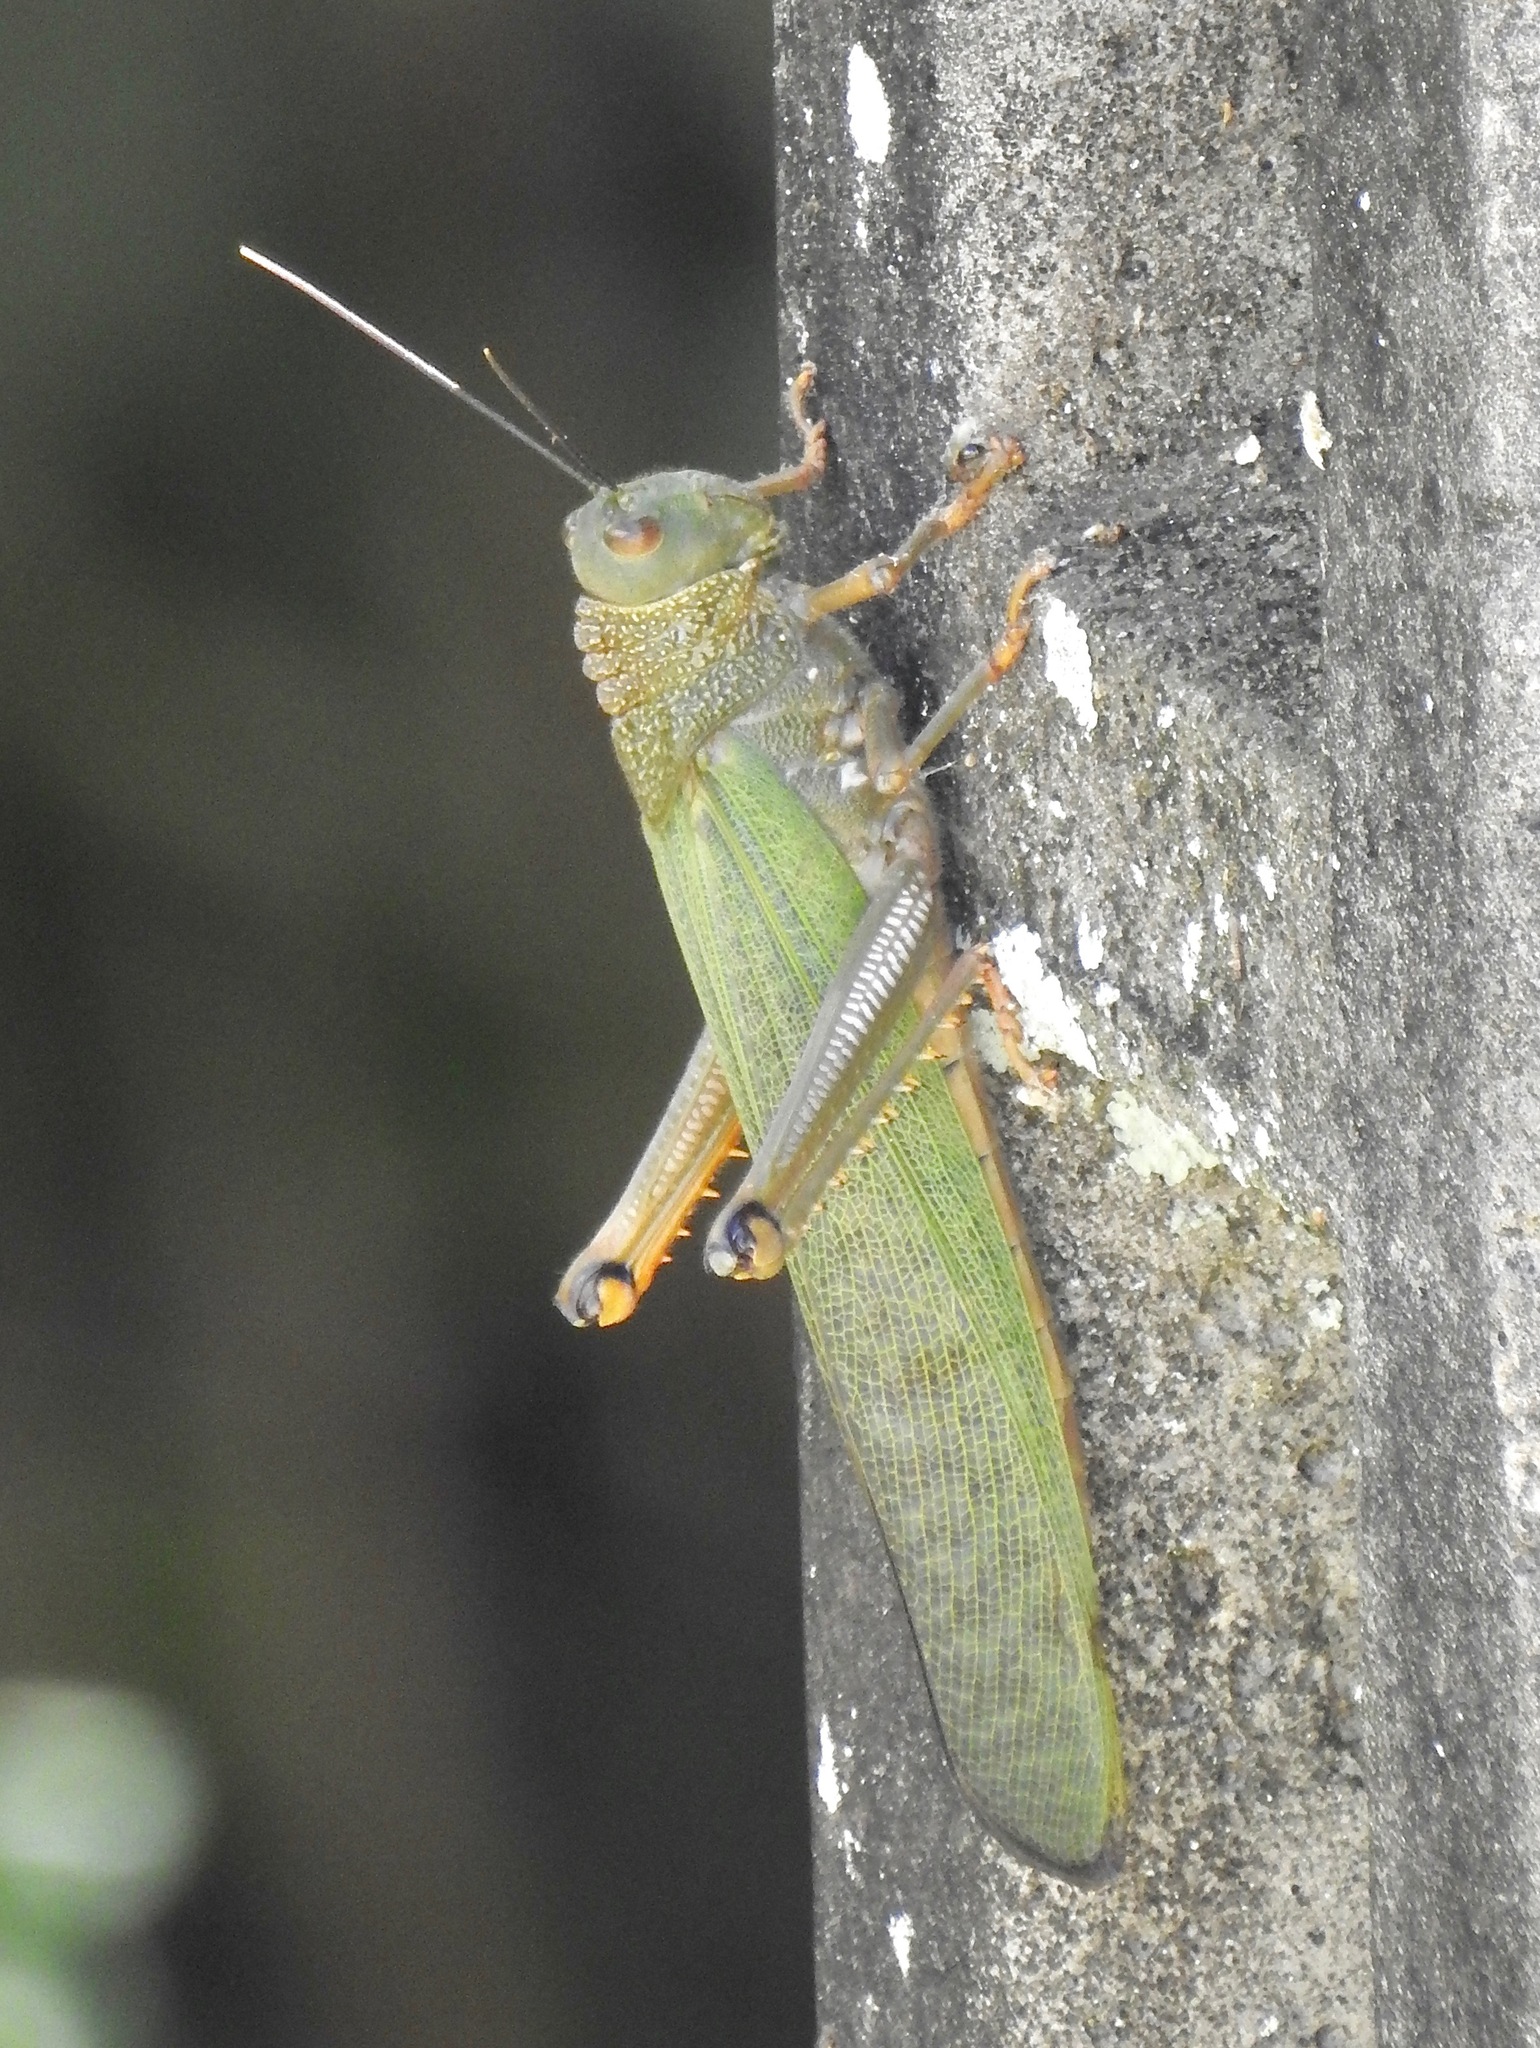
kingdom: Animalia
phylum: Arthropoda
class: Insecta
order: Orthoptera
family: Romaleidae
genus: Tropidacris
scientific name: Tropidacris cristata
